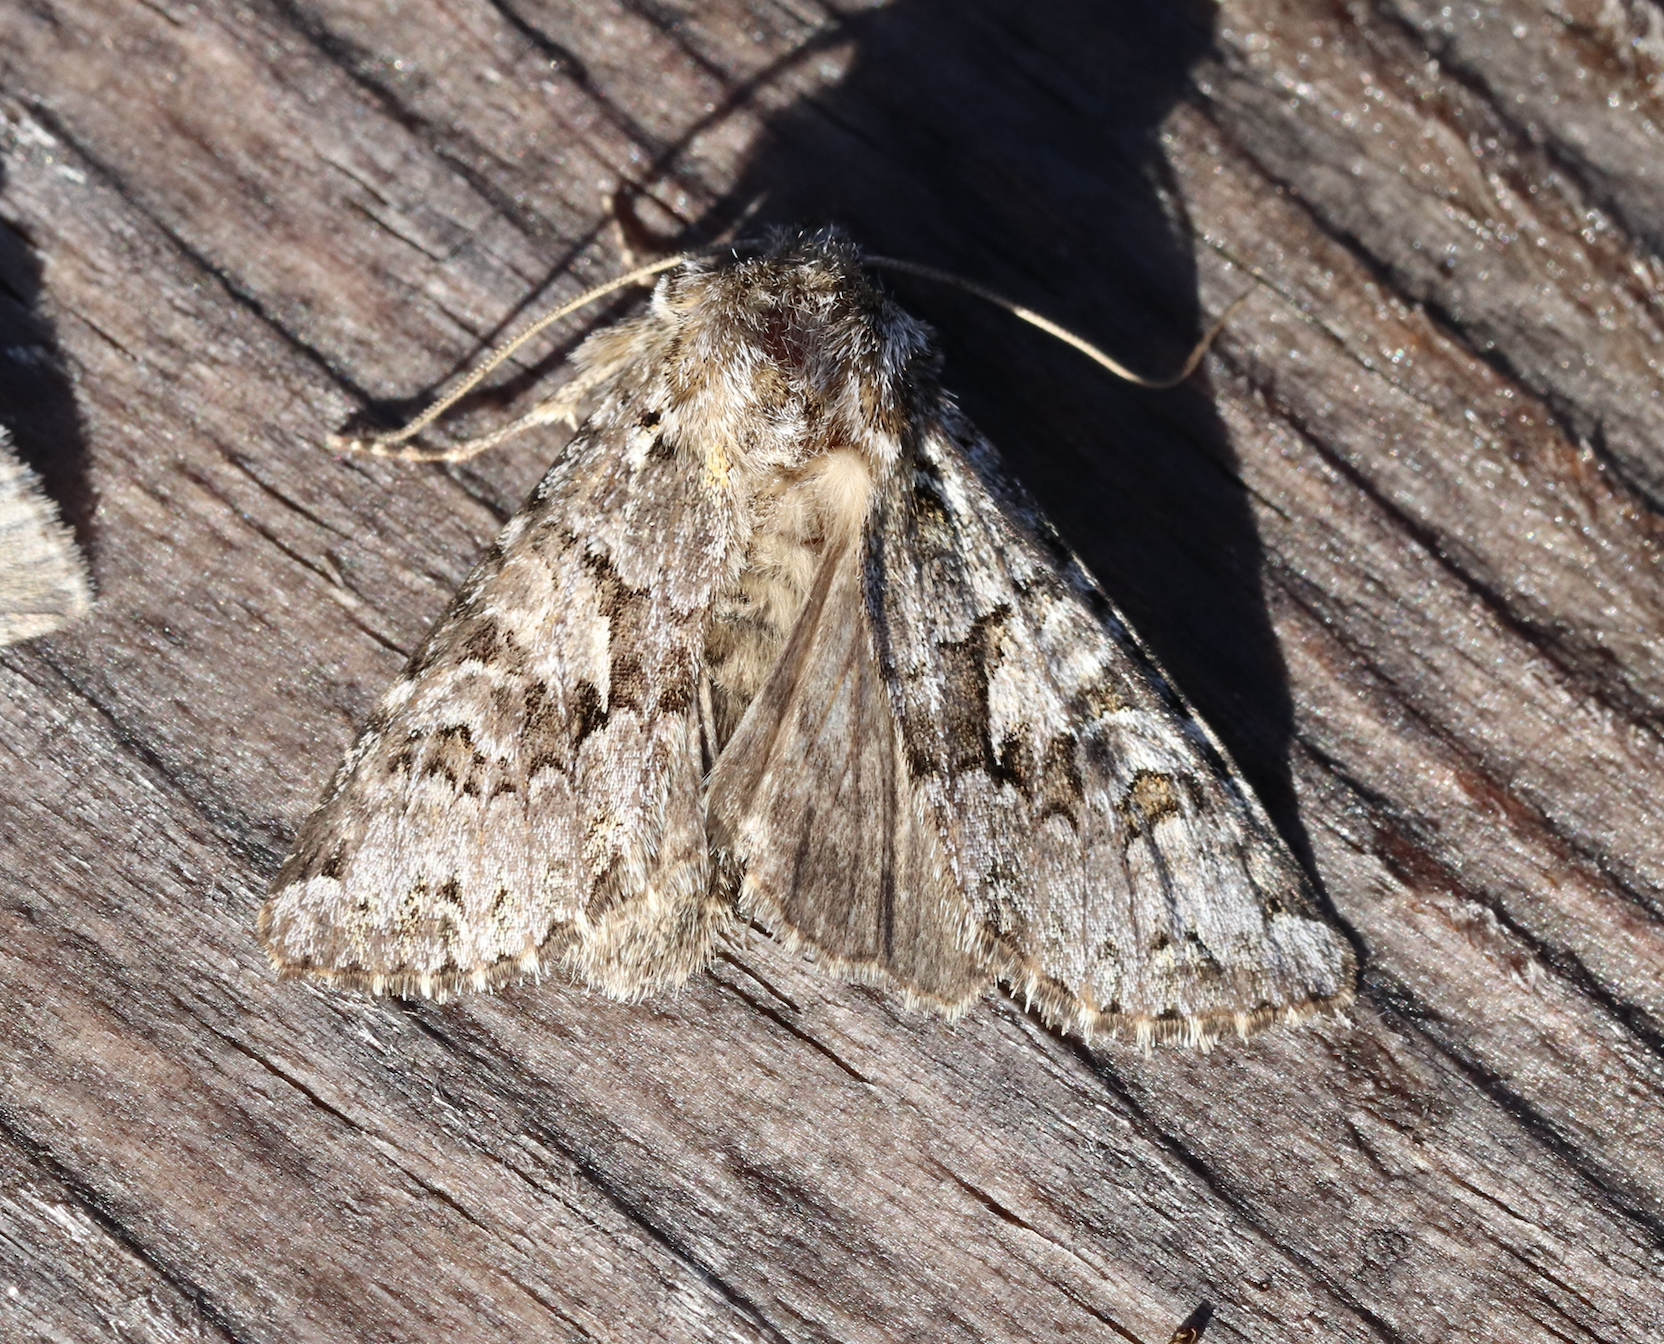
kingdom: Animalia
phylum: Arthropoda
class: Insecta
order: Lepidoptera
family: Noctuidae
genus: Hada
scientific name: Hada plebeja
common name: Shears
